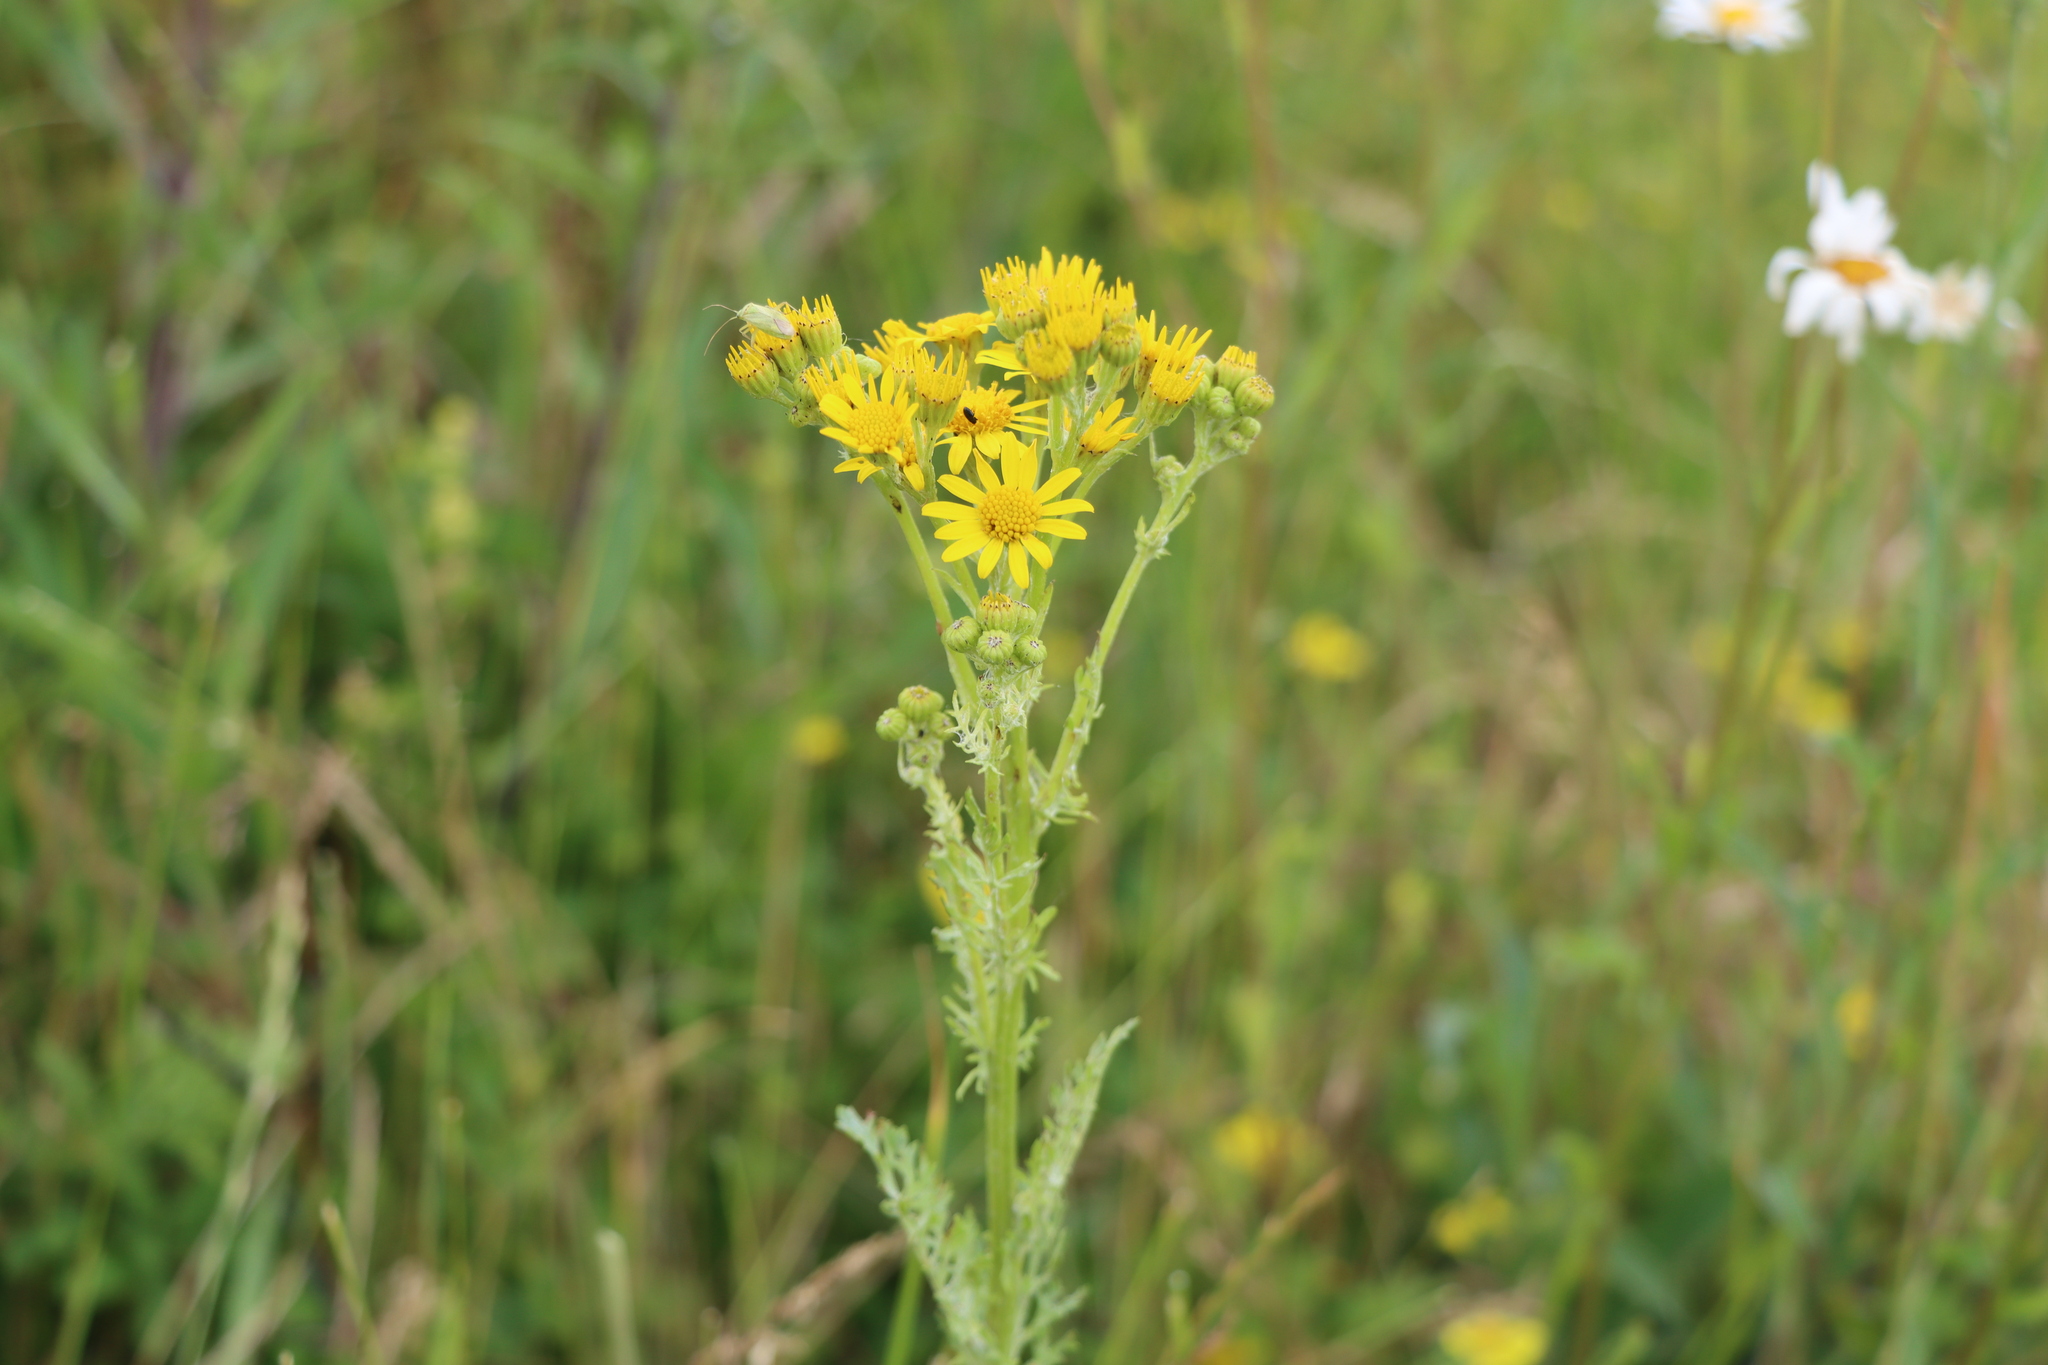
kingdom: Plantae
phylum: Tracheophyta
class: Magnoliopsida
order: Asterales
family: Asteraceae
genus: Jacobaea
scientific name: Jacobaea vulgaris
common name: Stinking willie
